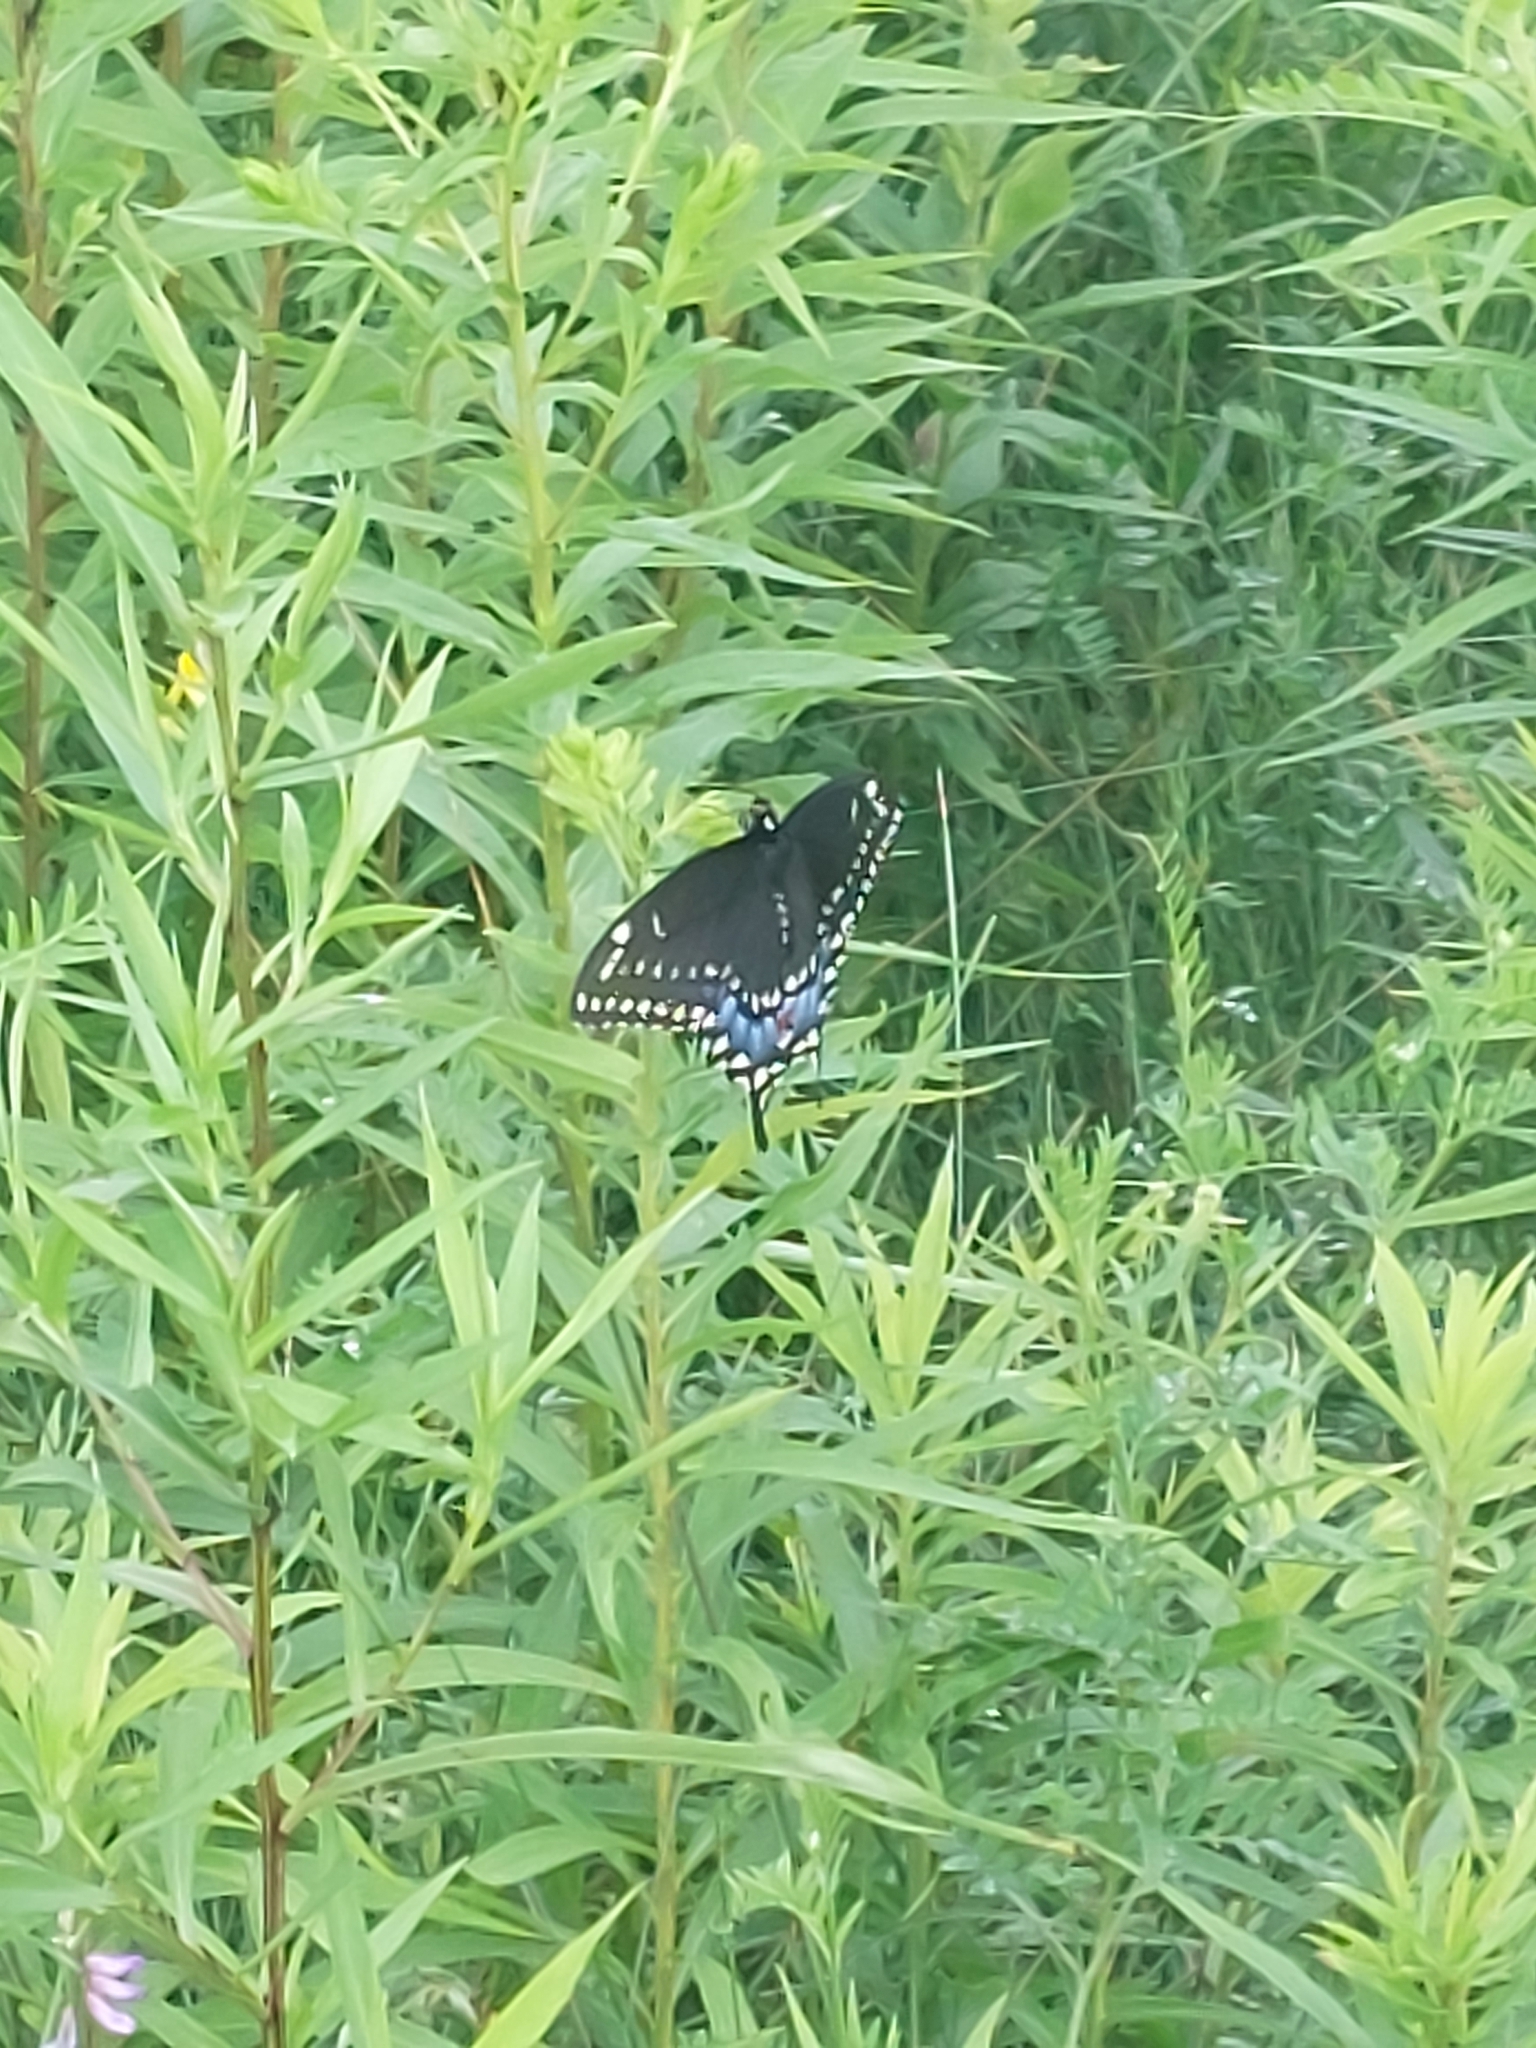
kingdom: Animalia
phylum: Arthropoda
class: Insecta
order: Lepidoptera
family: Papilionidae
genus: Papilio
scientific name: Papilio polyxenes
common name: Black swallowtail
